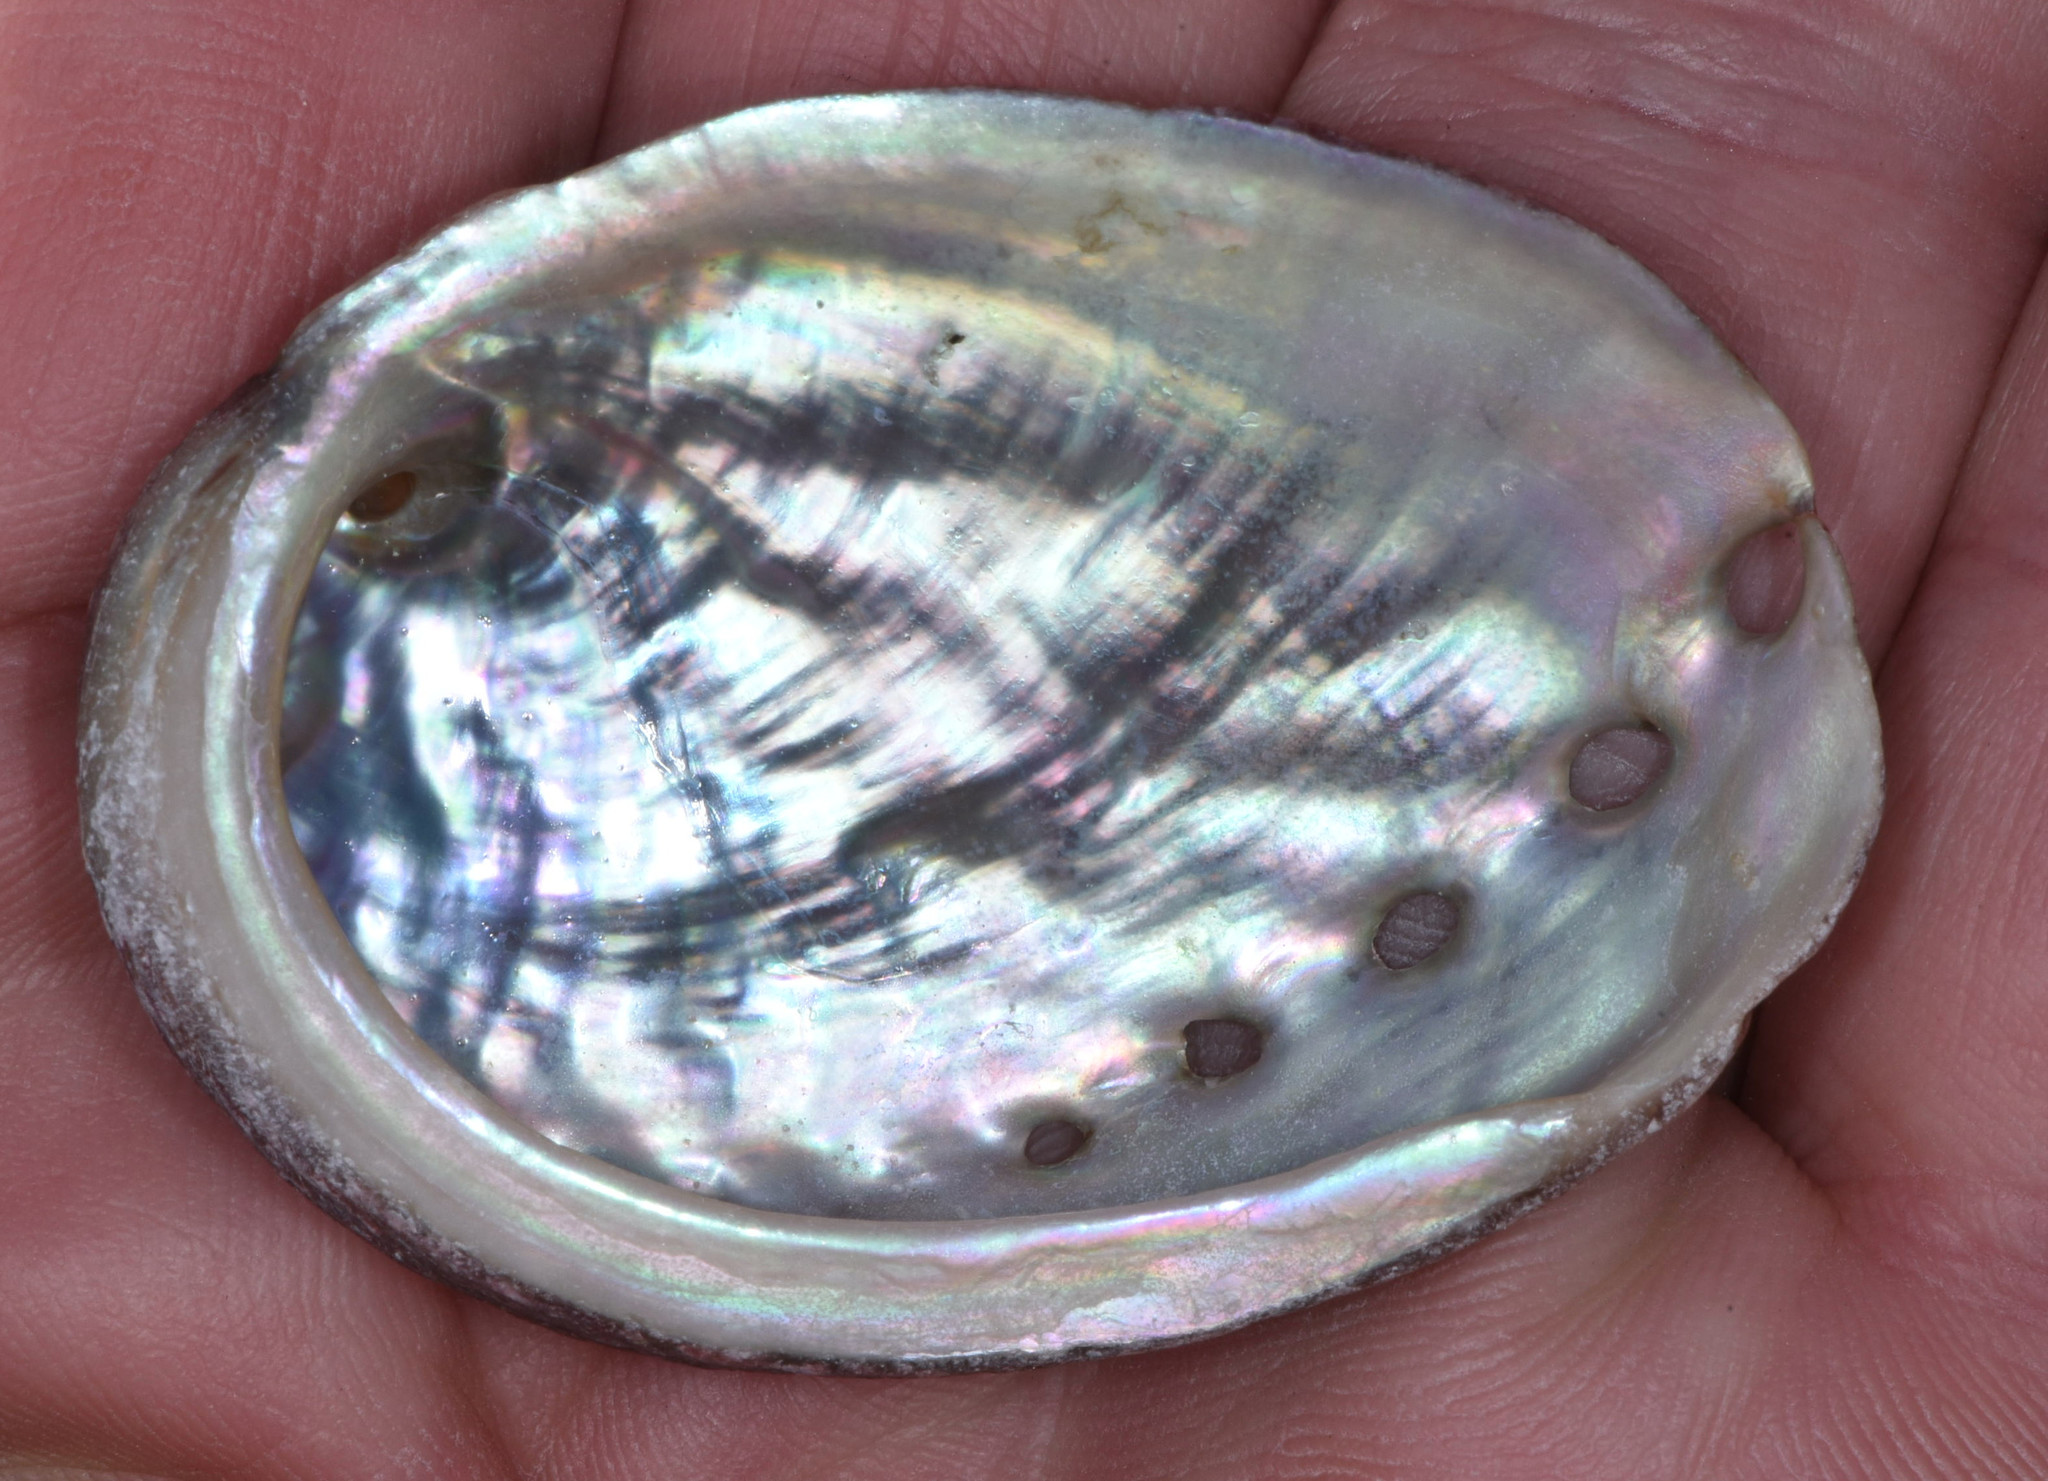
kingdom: Animalia
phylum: Mollusca
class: Gastropoda
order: Lepetellida
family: Haliotidae
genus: Haliotis
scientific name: Haliotis rufescens
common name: Red abalone
